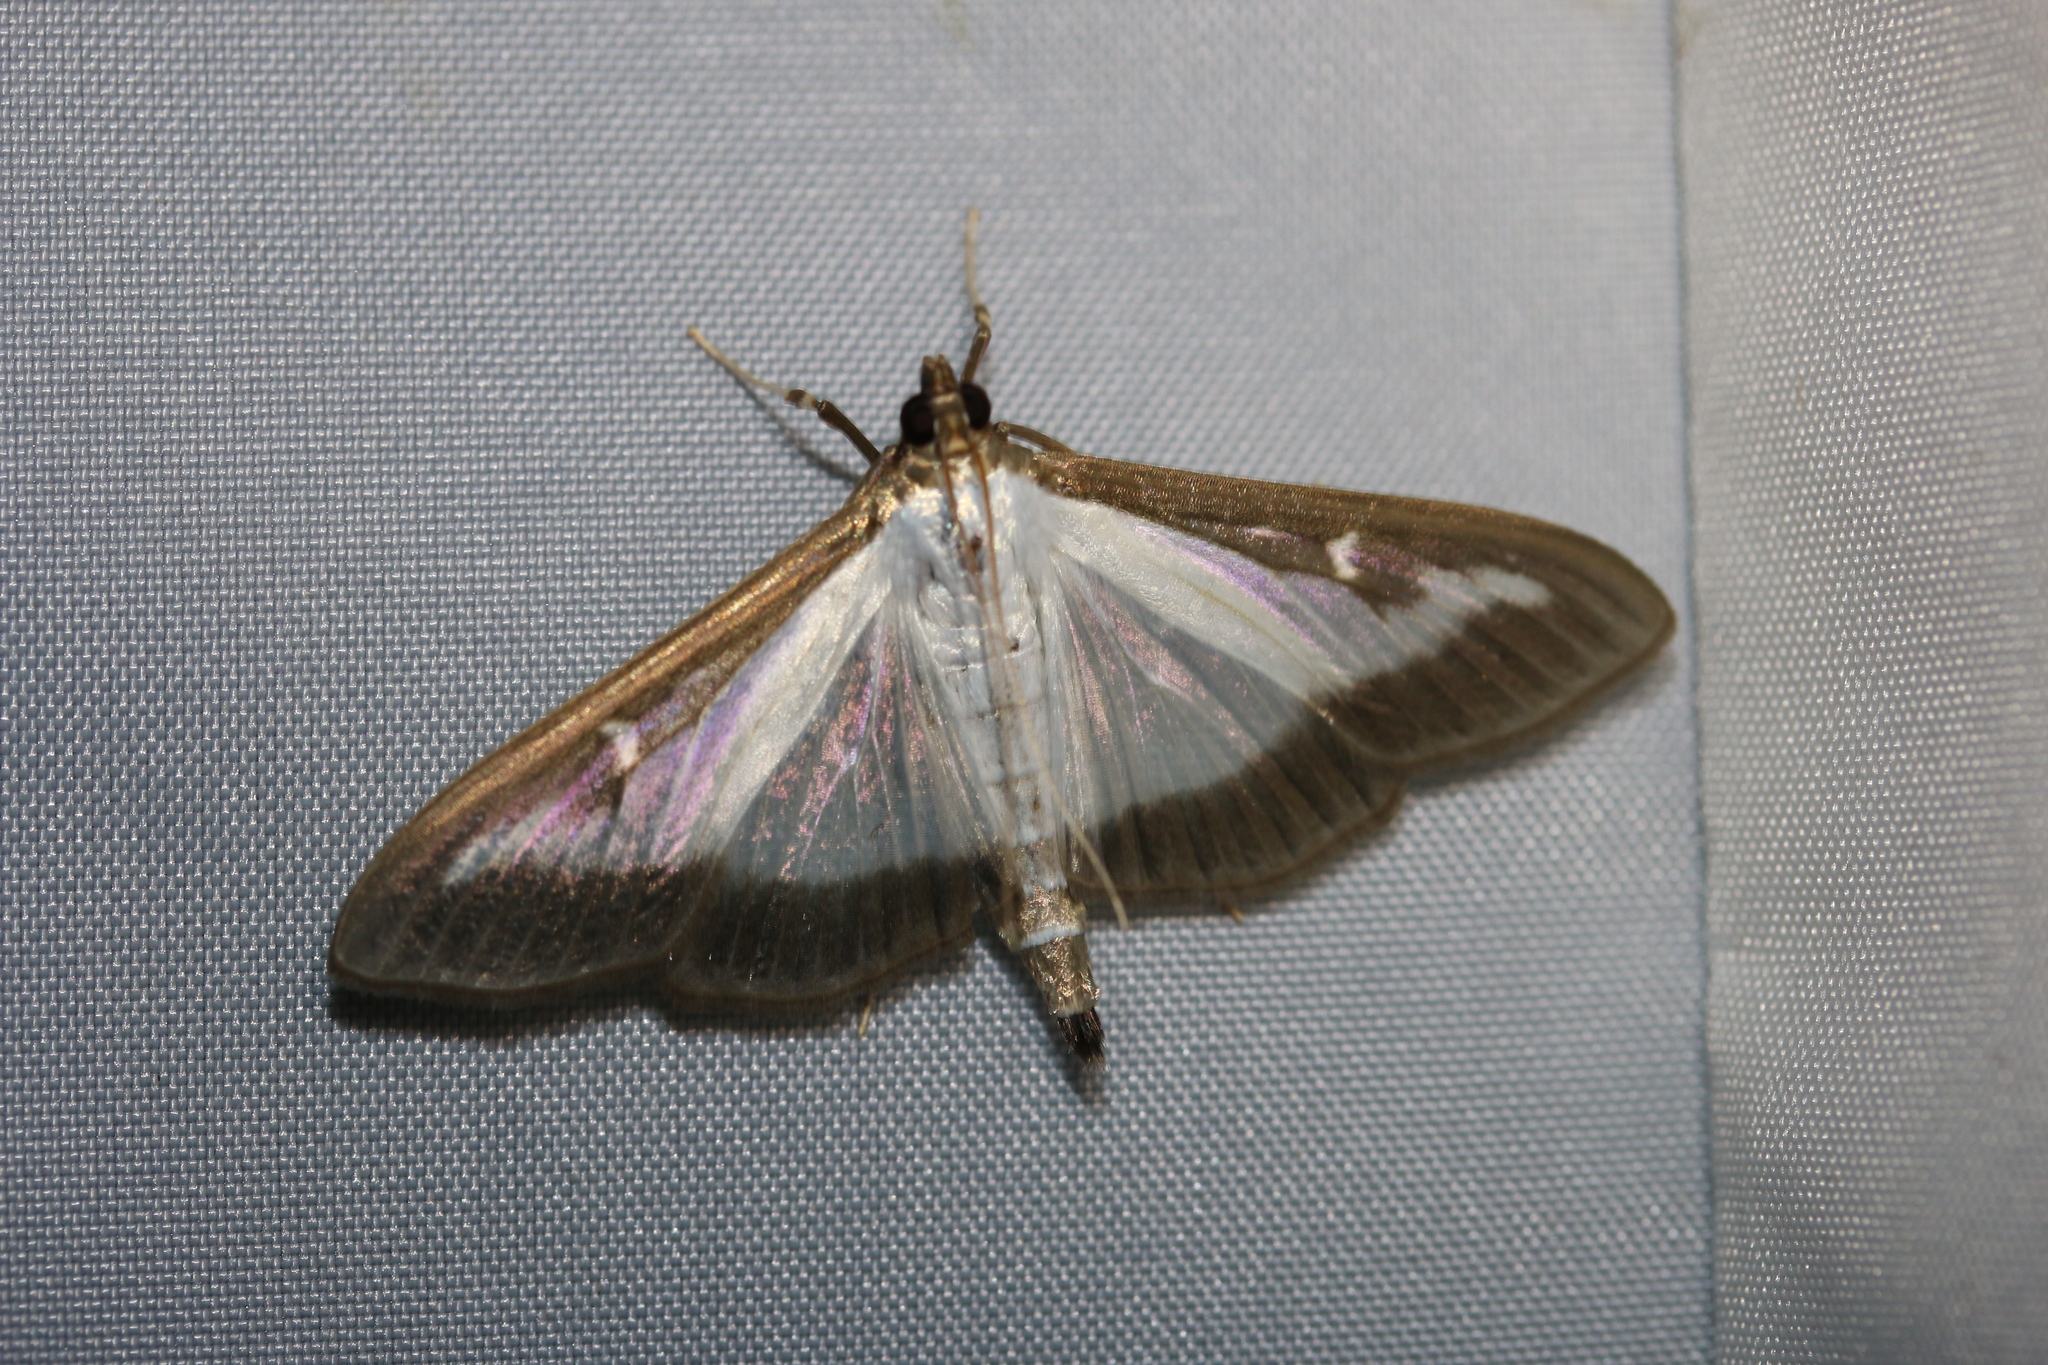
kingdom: Animalia
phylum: Arthropoda
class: Insecta
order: Lepidoptera
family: Crambidae
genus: Cydalima
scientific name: Cydalima perspectalis
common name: Box tree moth
